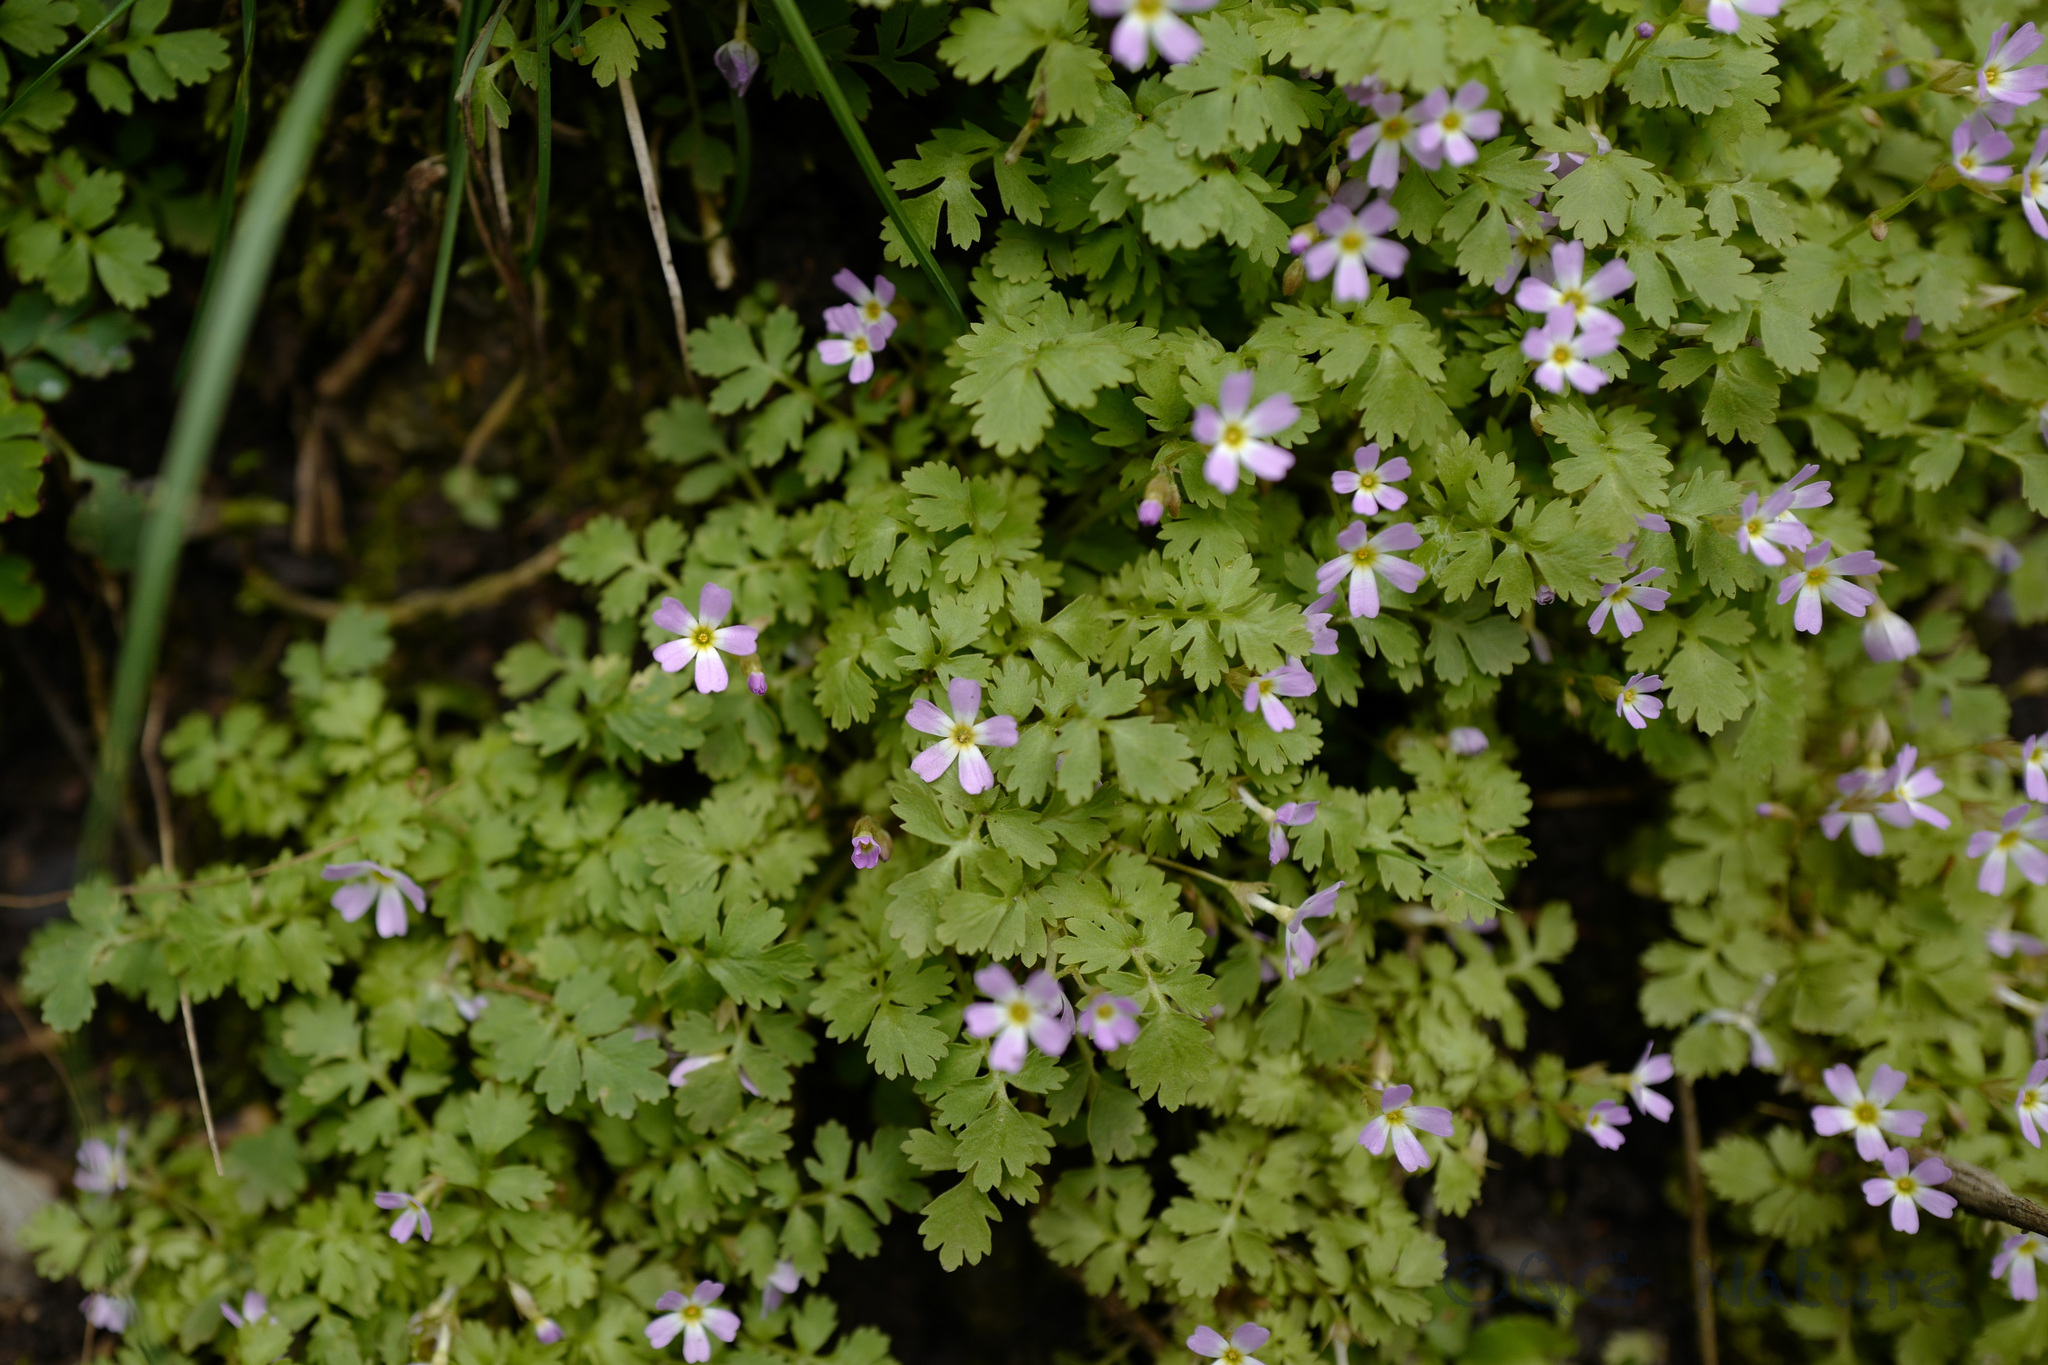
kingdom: Plantae
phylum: Tracheophyta
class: Magnoliopsida
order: Ericales
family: Primulaceae
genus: Primula
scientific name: Primula cicutariifolia
